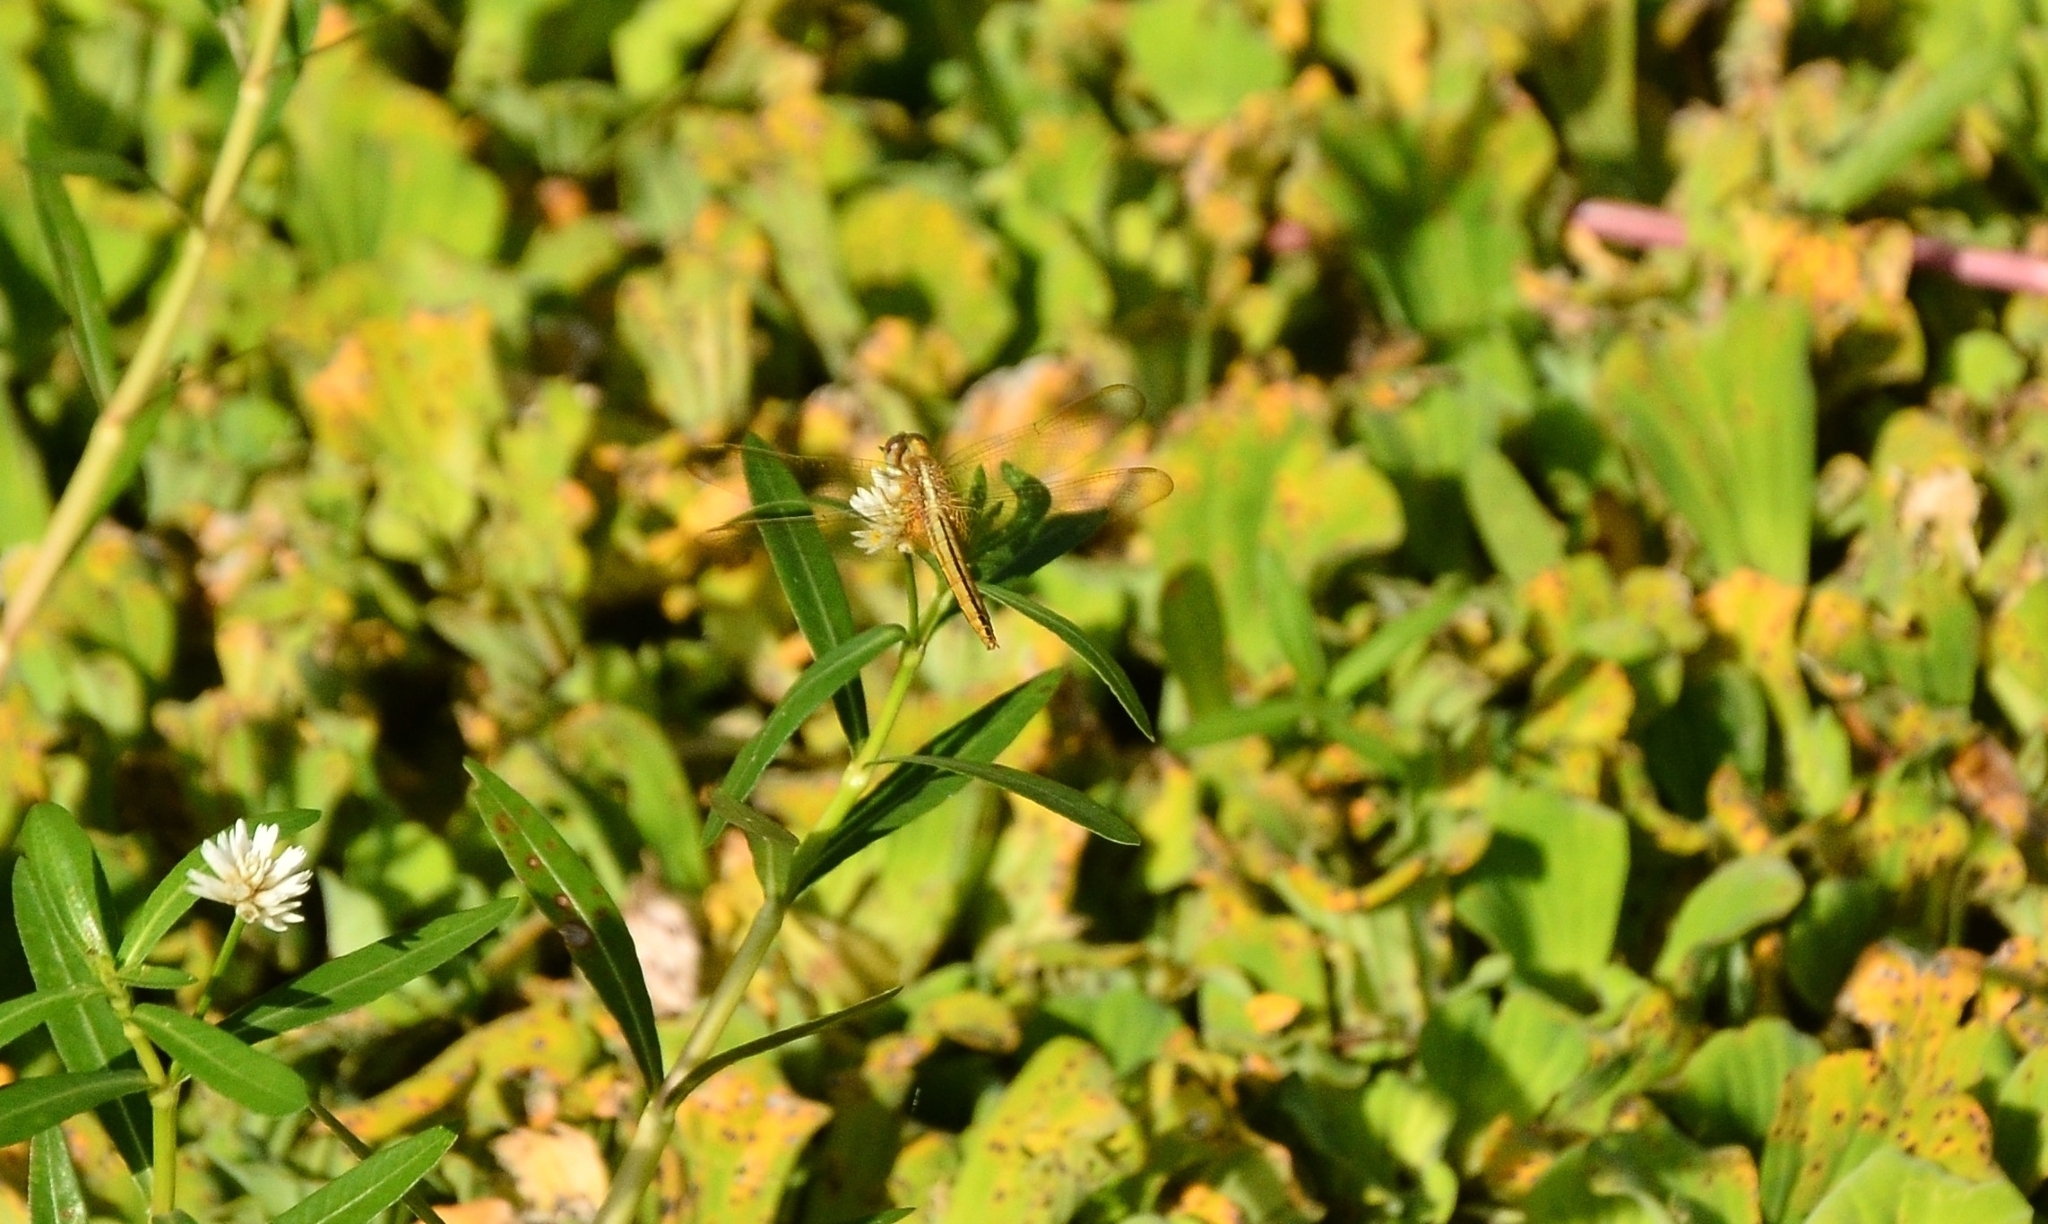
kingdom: Animalia
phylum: Arthropoda
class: Insecta
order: Odonata
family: Libellulidae
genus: Crocothemis
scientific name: Crocothemis servilia
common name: Scarlet skimmer
